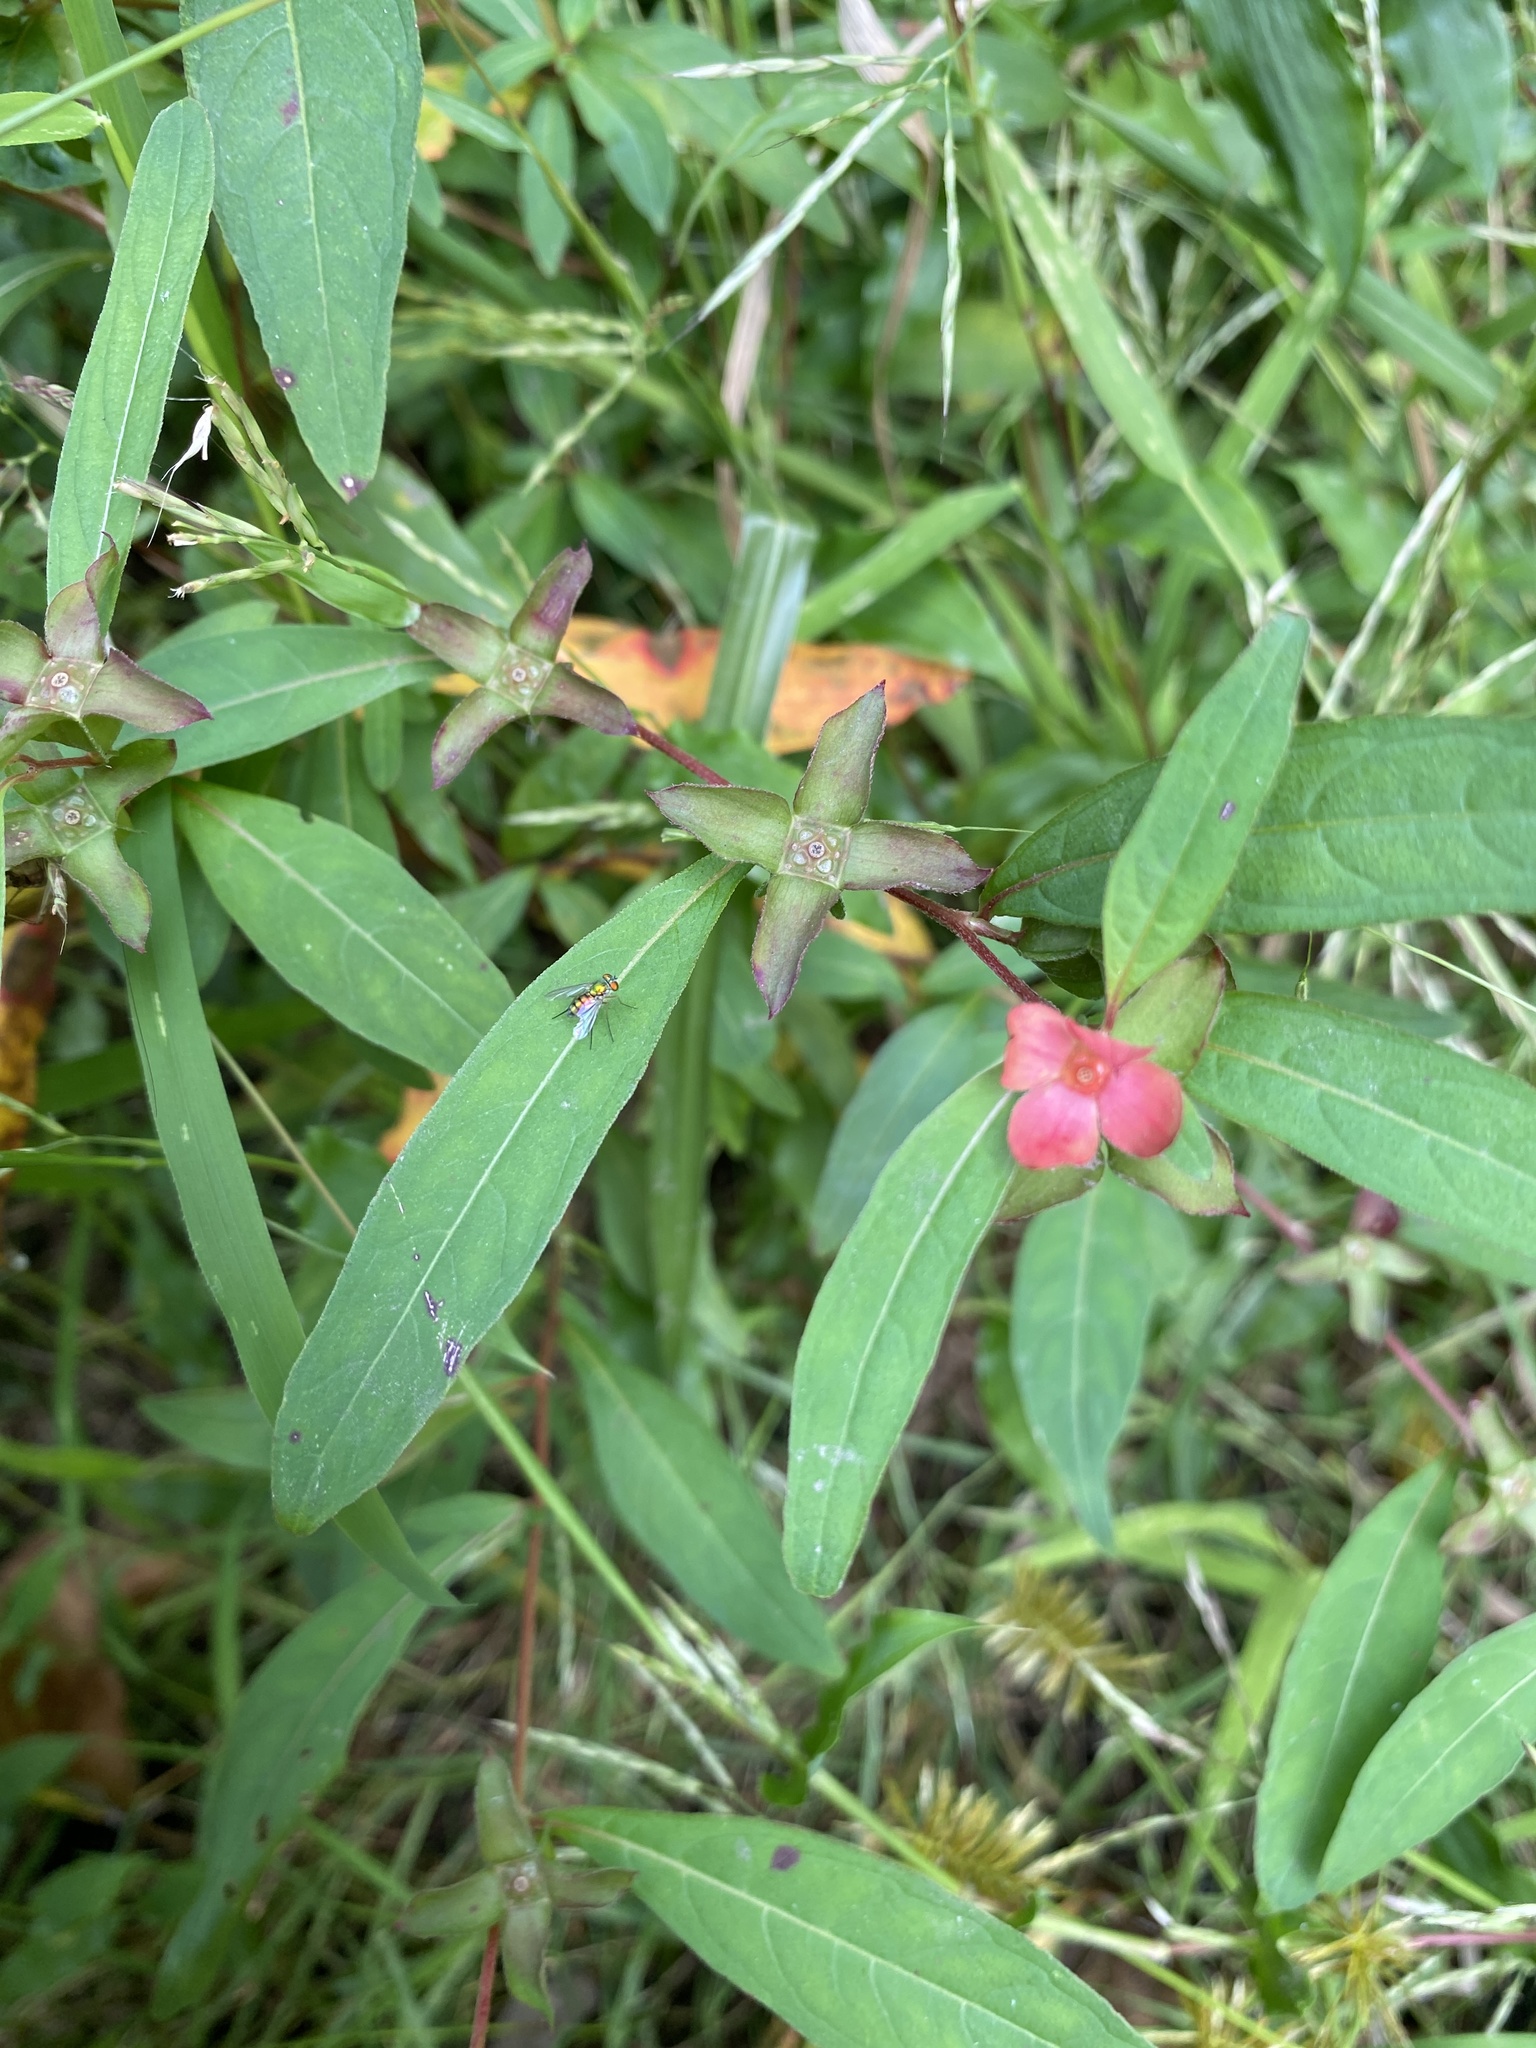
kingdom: Plantae
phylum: Tracheophyta
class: Magnoliopsida
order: Myrtales
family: Onagraceae
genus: Ludwigia
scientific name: Ludwigia alternifolia
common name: Rattlebox
